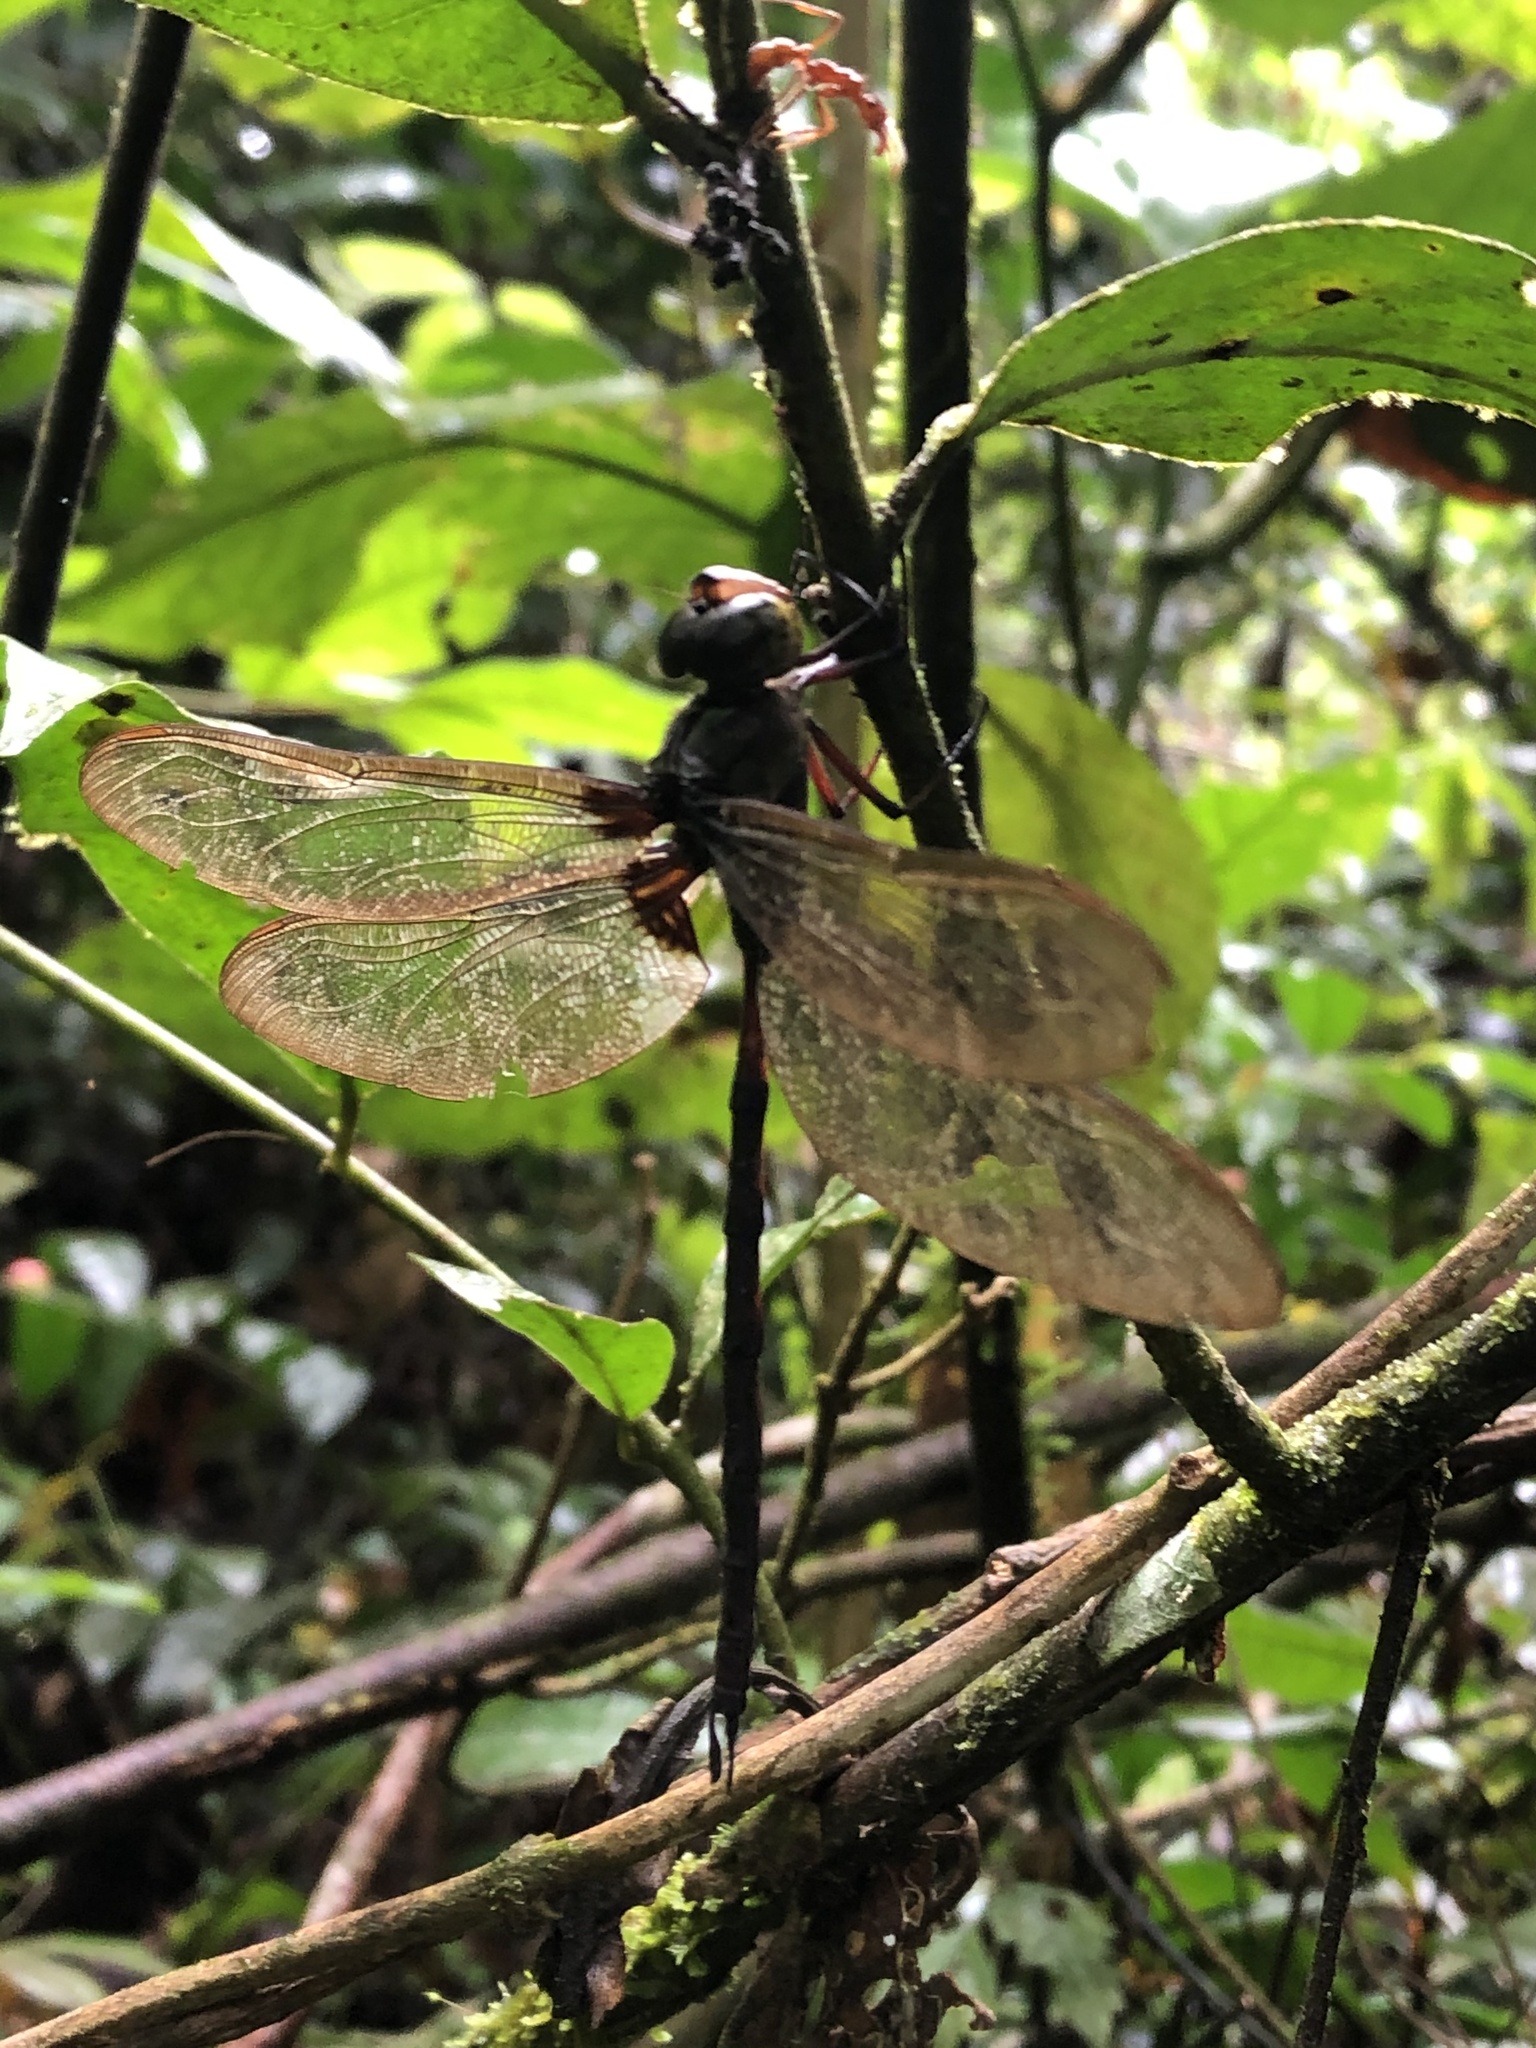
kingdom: Animalia
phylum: Arthropoda
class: Insecta
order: Odonata
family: Aeshnidae
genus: Gynacantha
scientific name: Gynacantha membranalis
